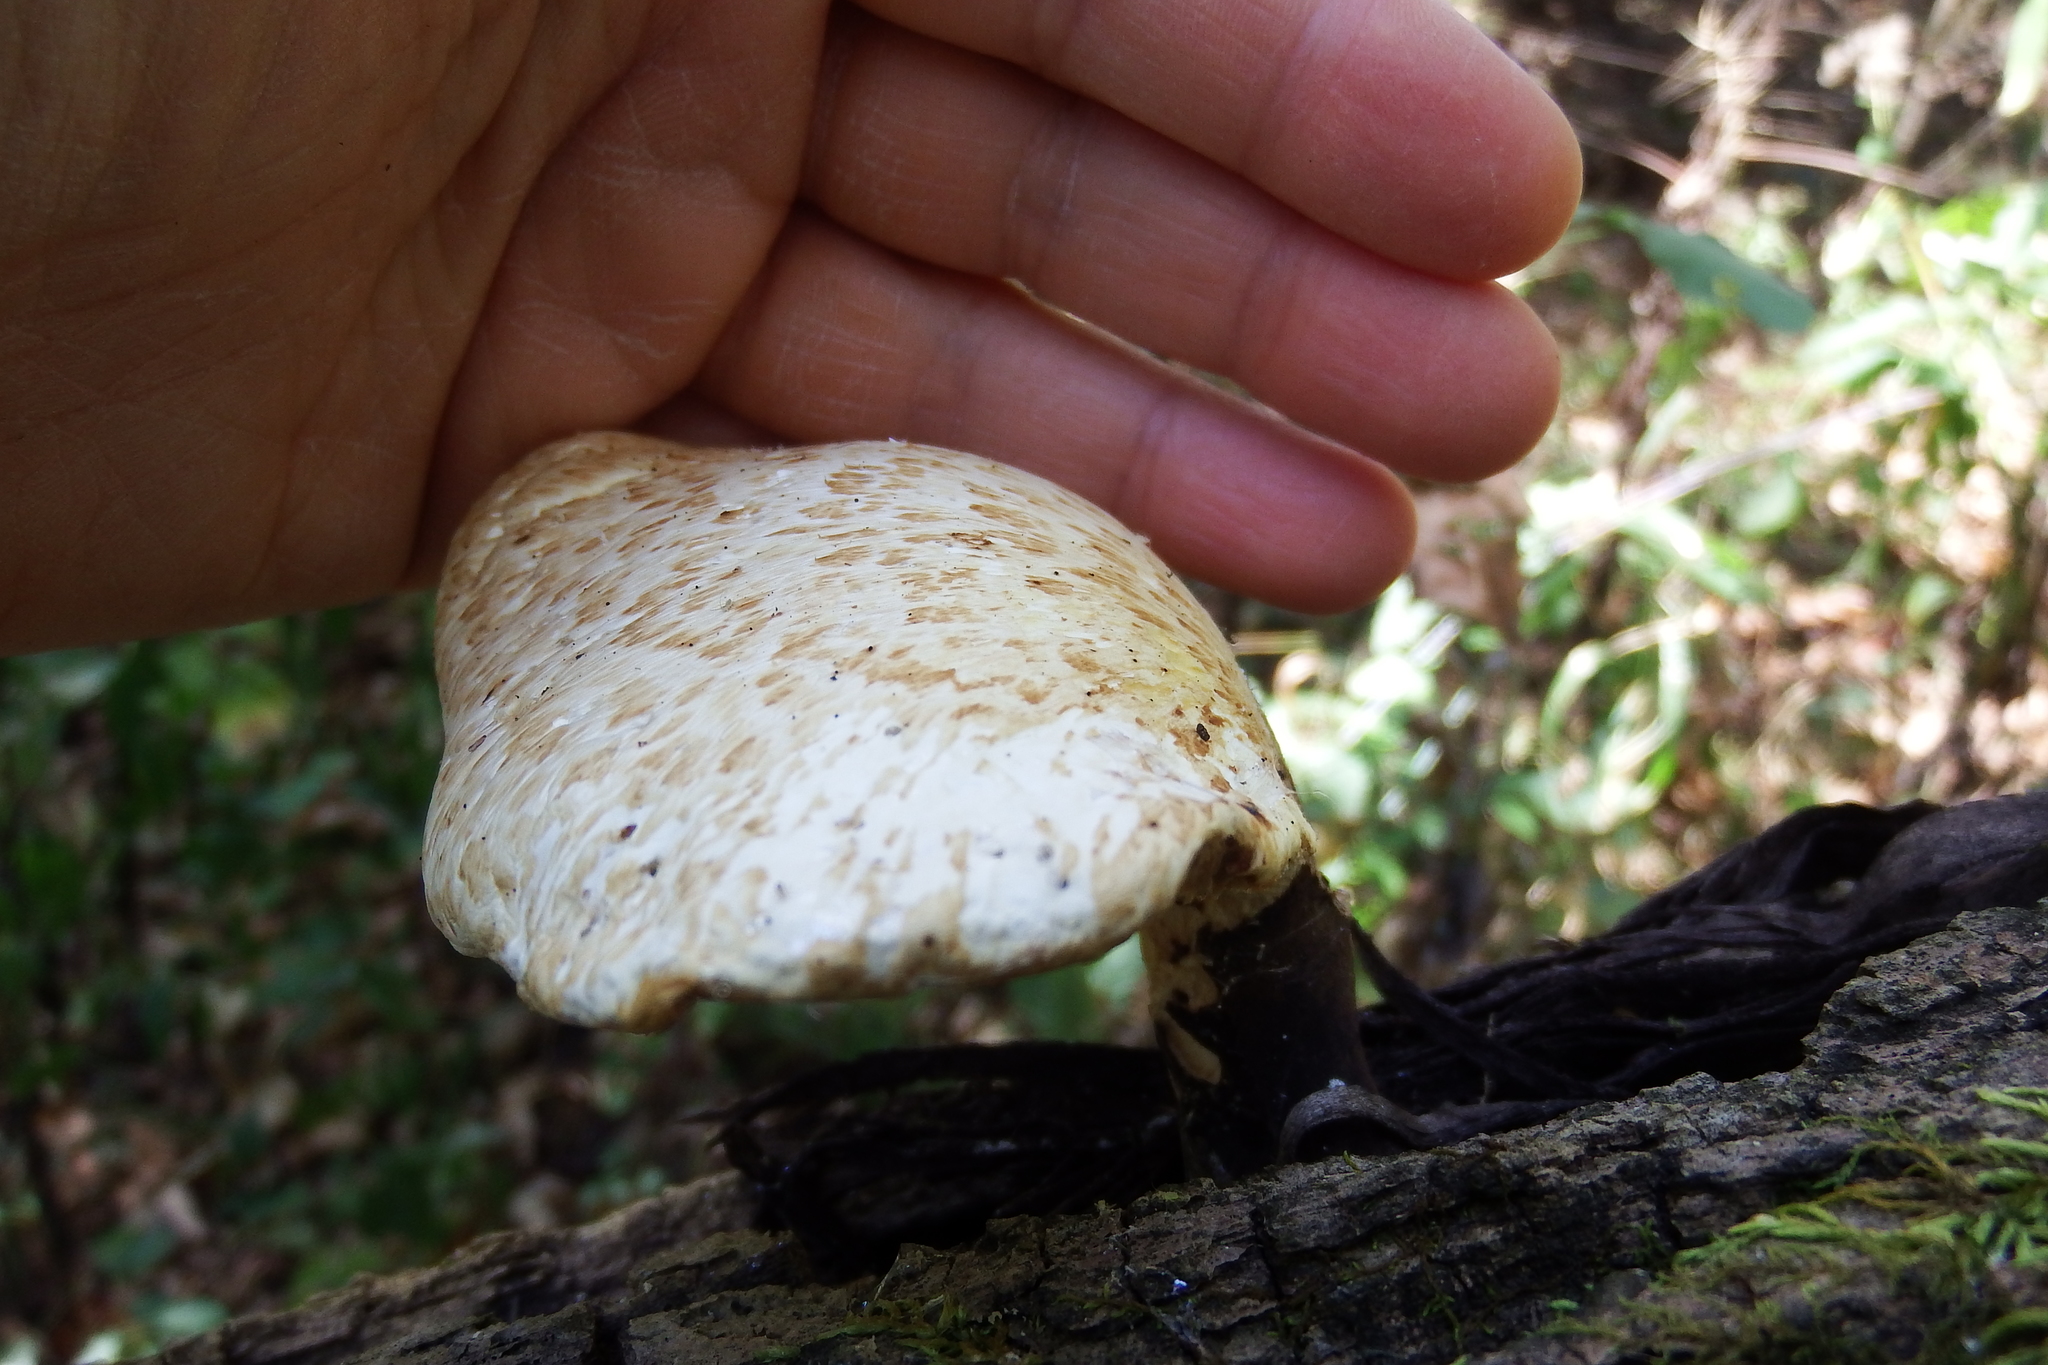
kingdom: Fungi
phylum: Basidiomycota
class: Agaricomycetes
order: Polyporales
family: Polyporaceae
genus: Cerioporus
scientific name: Cerioporus squamosus
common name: Dryad's saddle
